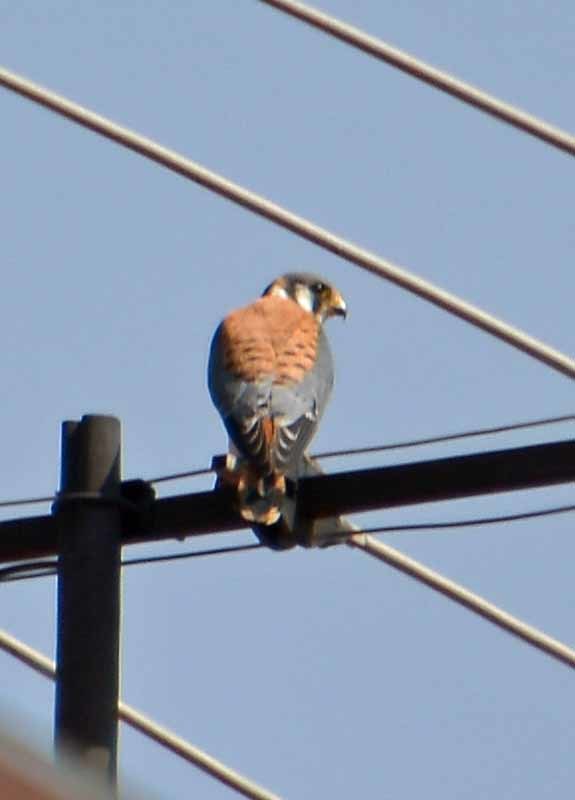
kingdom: Animalia
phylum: Chordata
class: Aves
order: Falconiformes
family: Falconidae
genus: Falco
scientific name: Falco sparverius
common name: American kestrel
